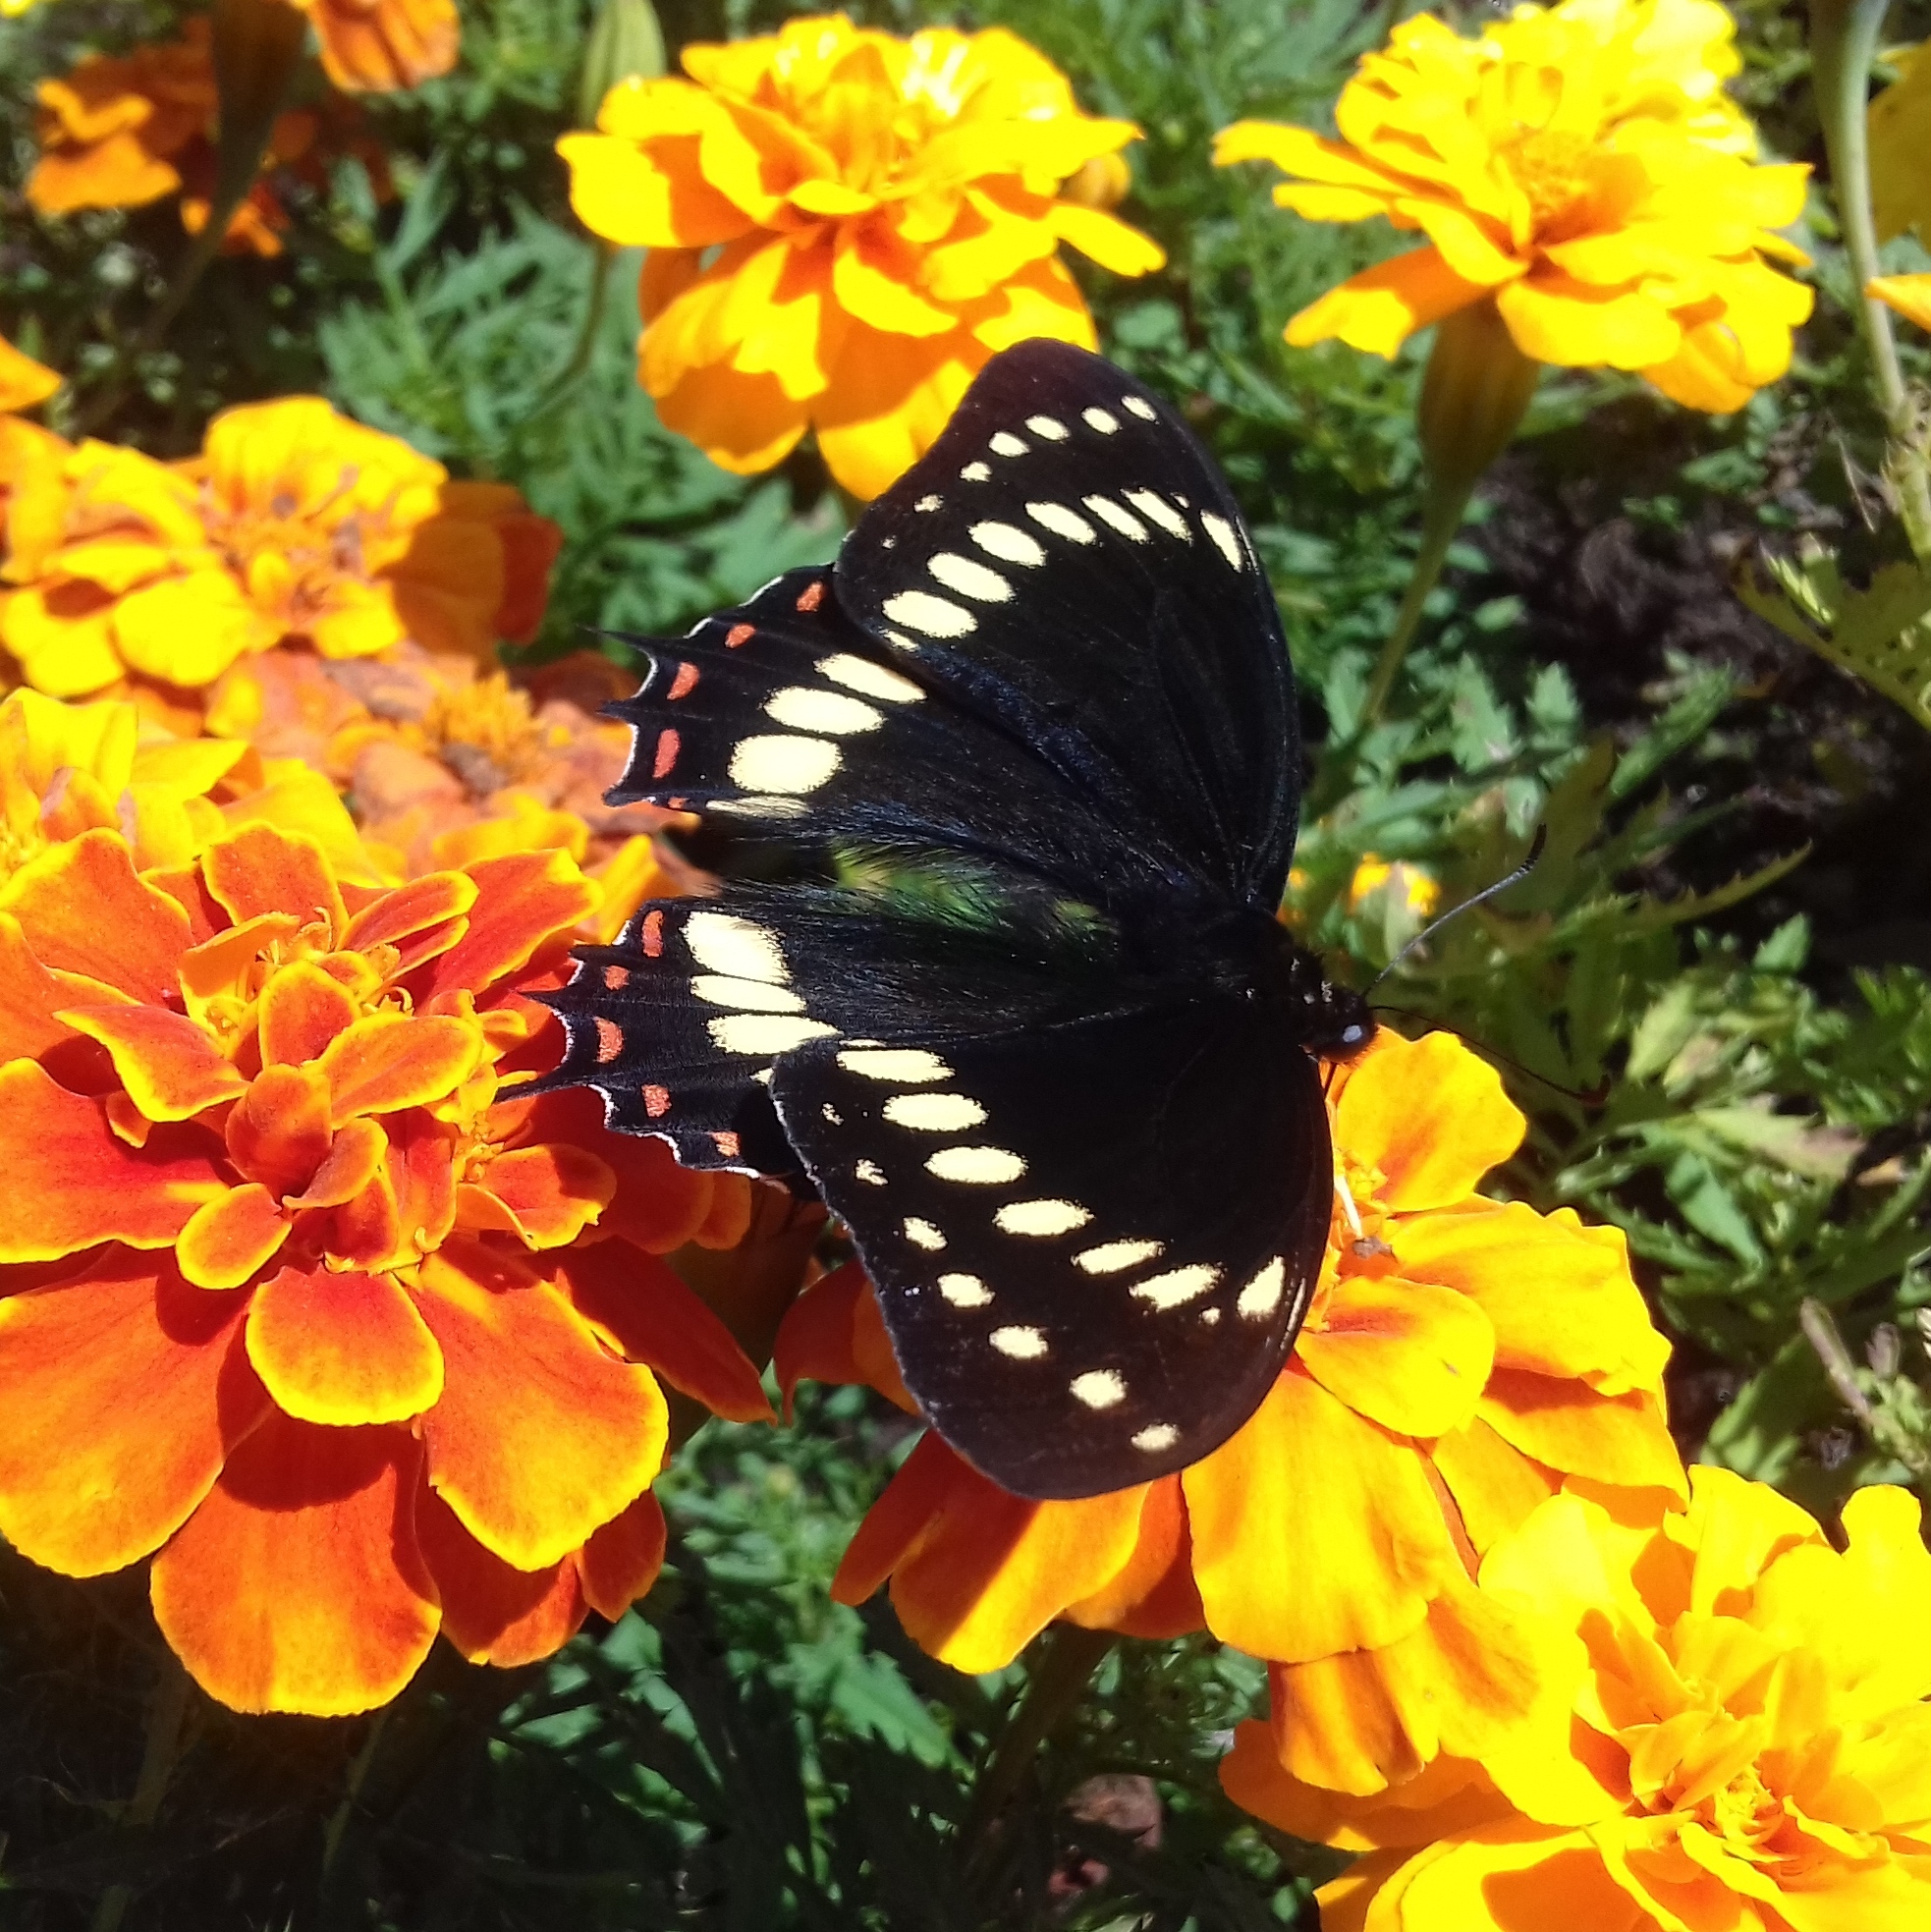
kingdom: Animalia
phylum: Arthropoda
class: Insecta
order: Lepidoptera
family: Papilionidae
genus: Papilio
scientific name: Papilio scamander
